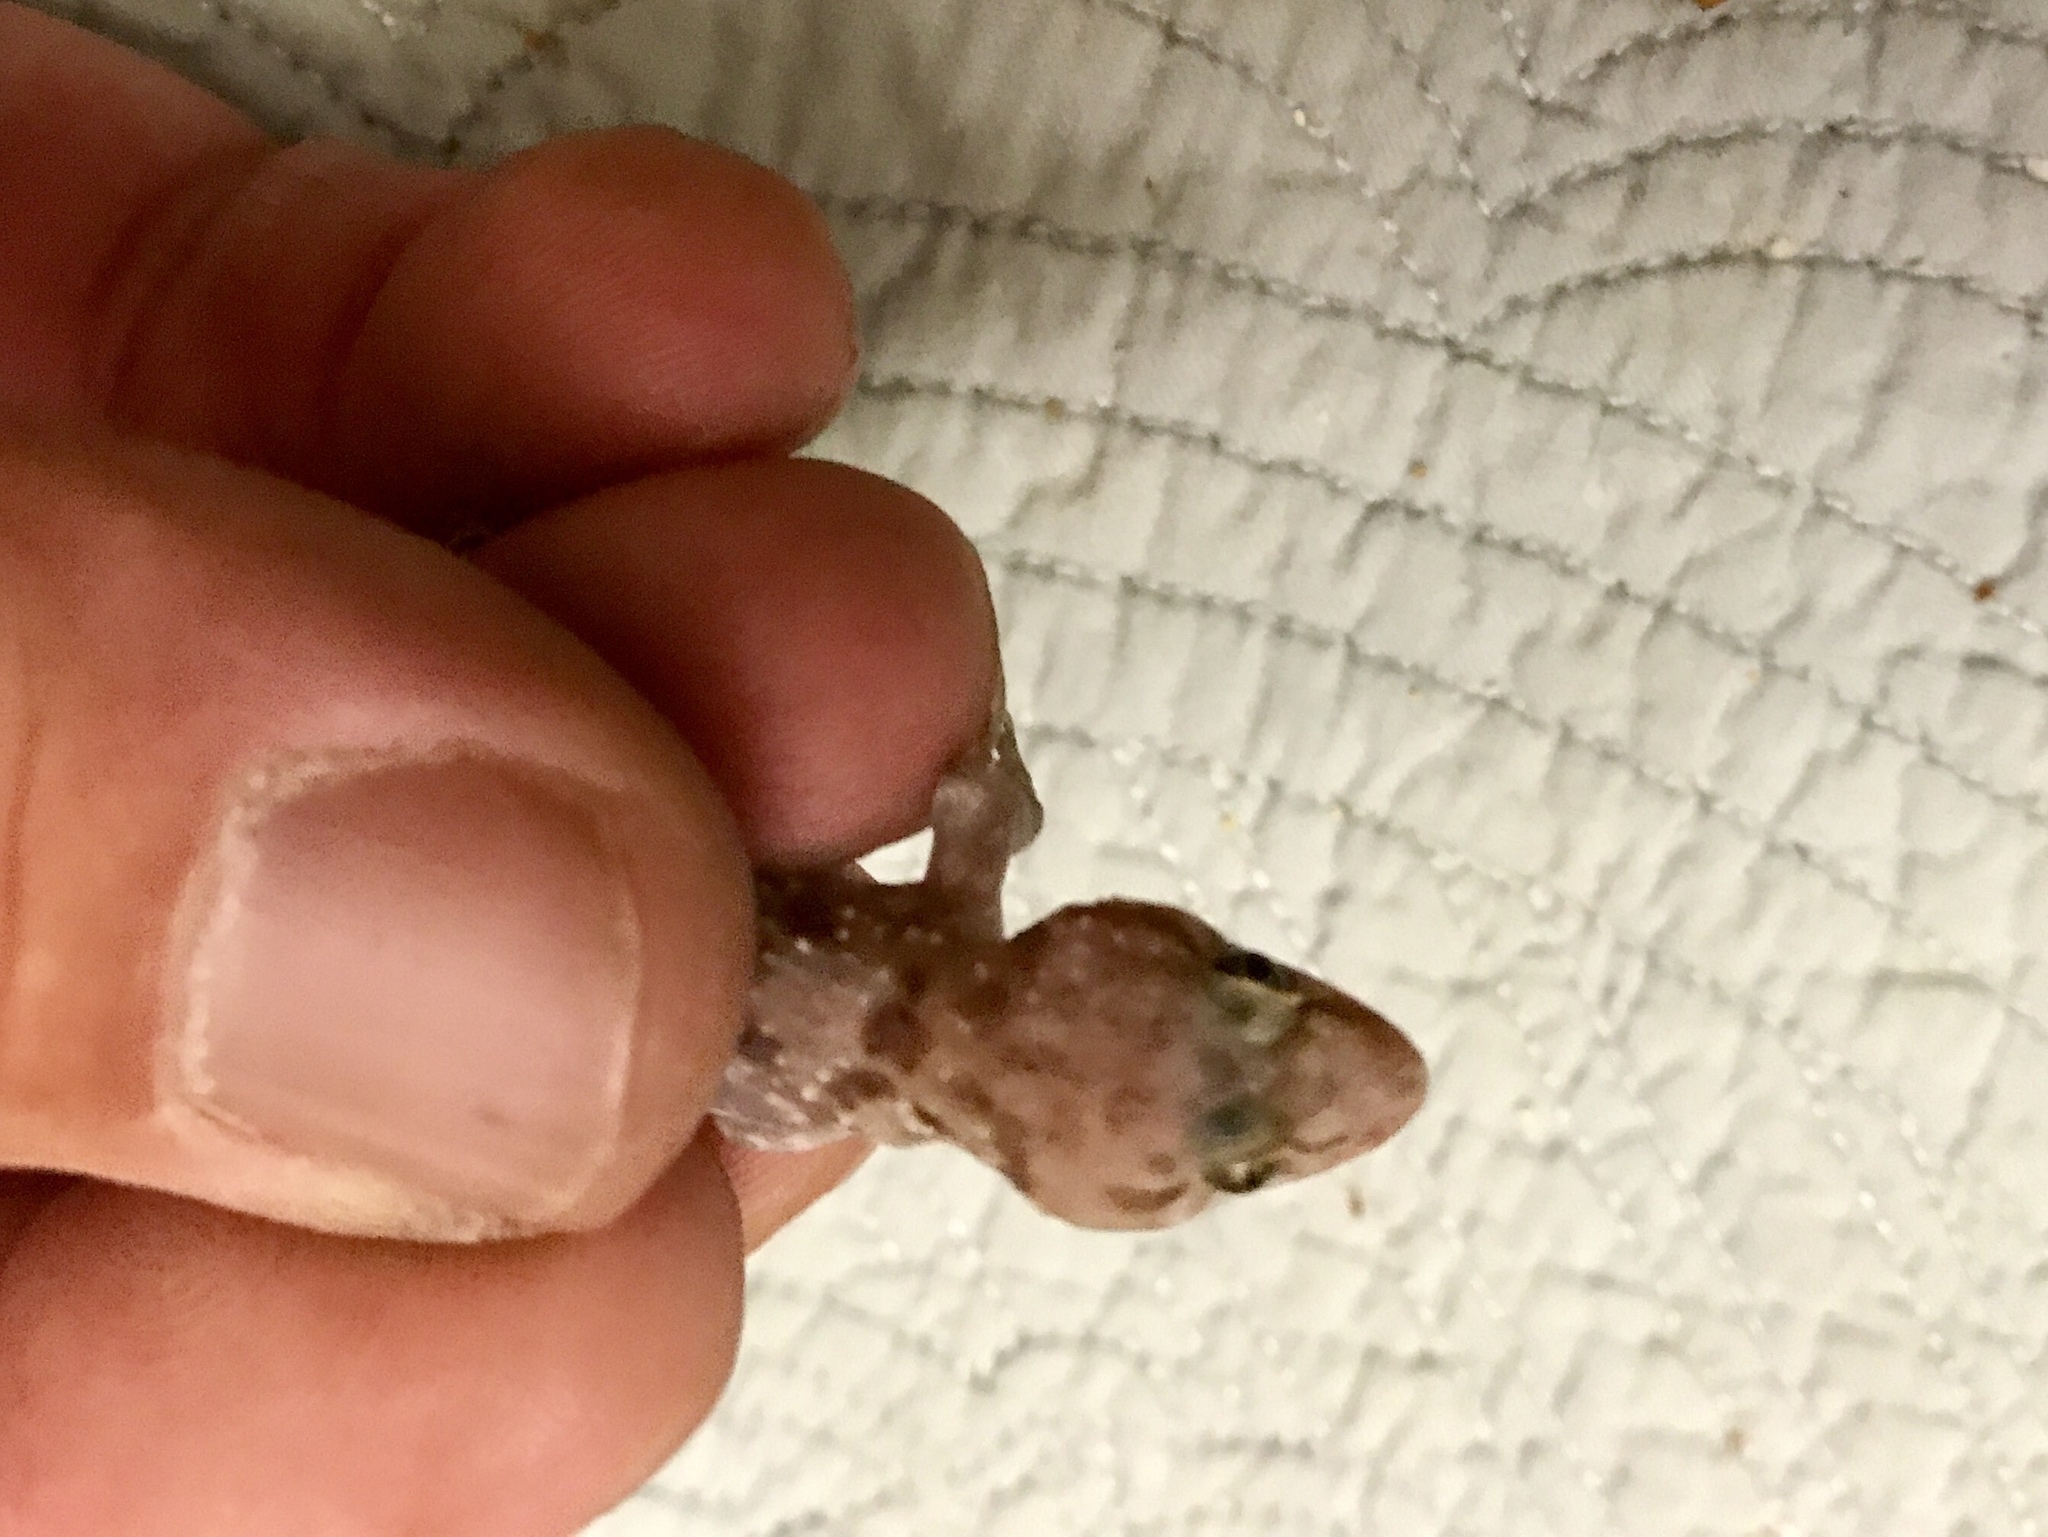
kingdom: Animalia
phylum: Chordata
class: Squamata
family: Gekkonidae
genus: Hemidactylus
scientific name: Hemidactylus turcicus
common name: Turkish gecko
